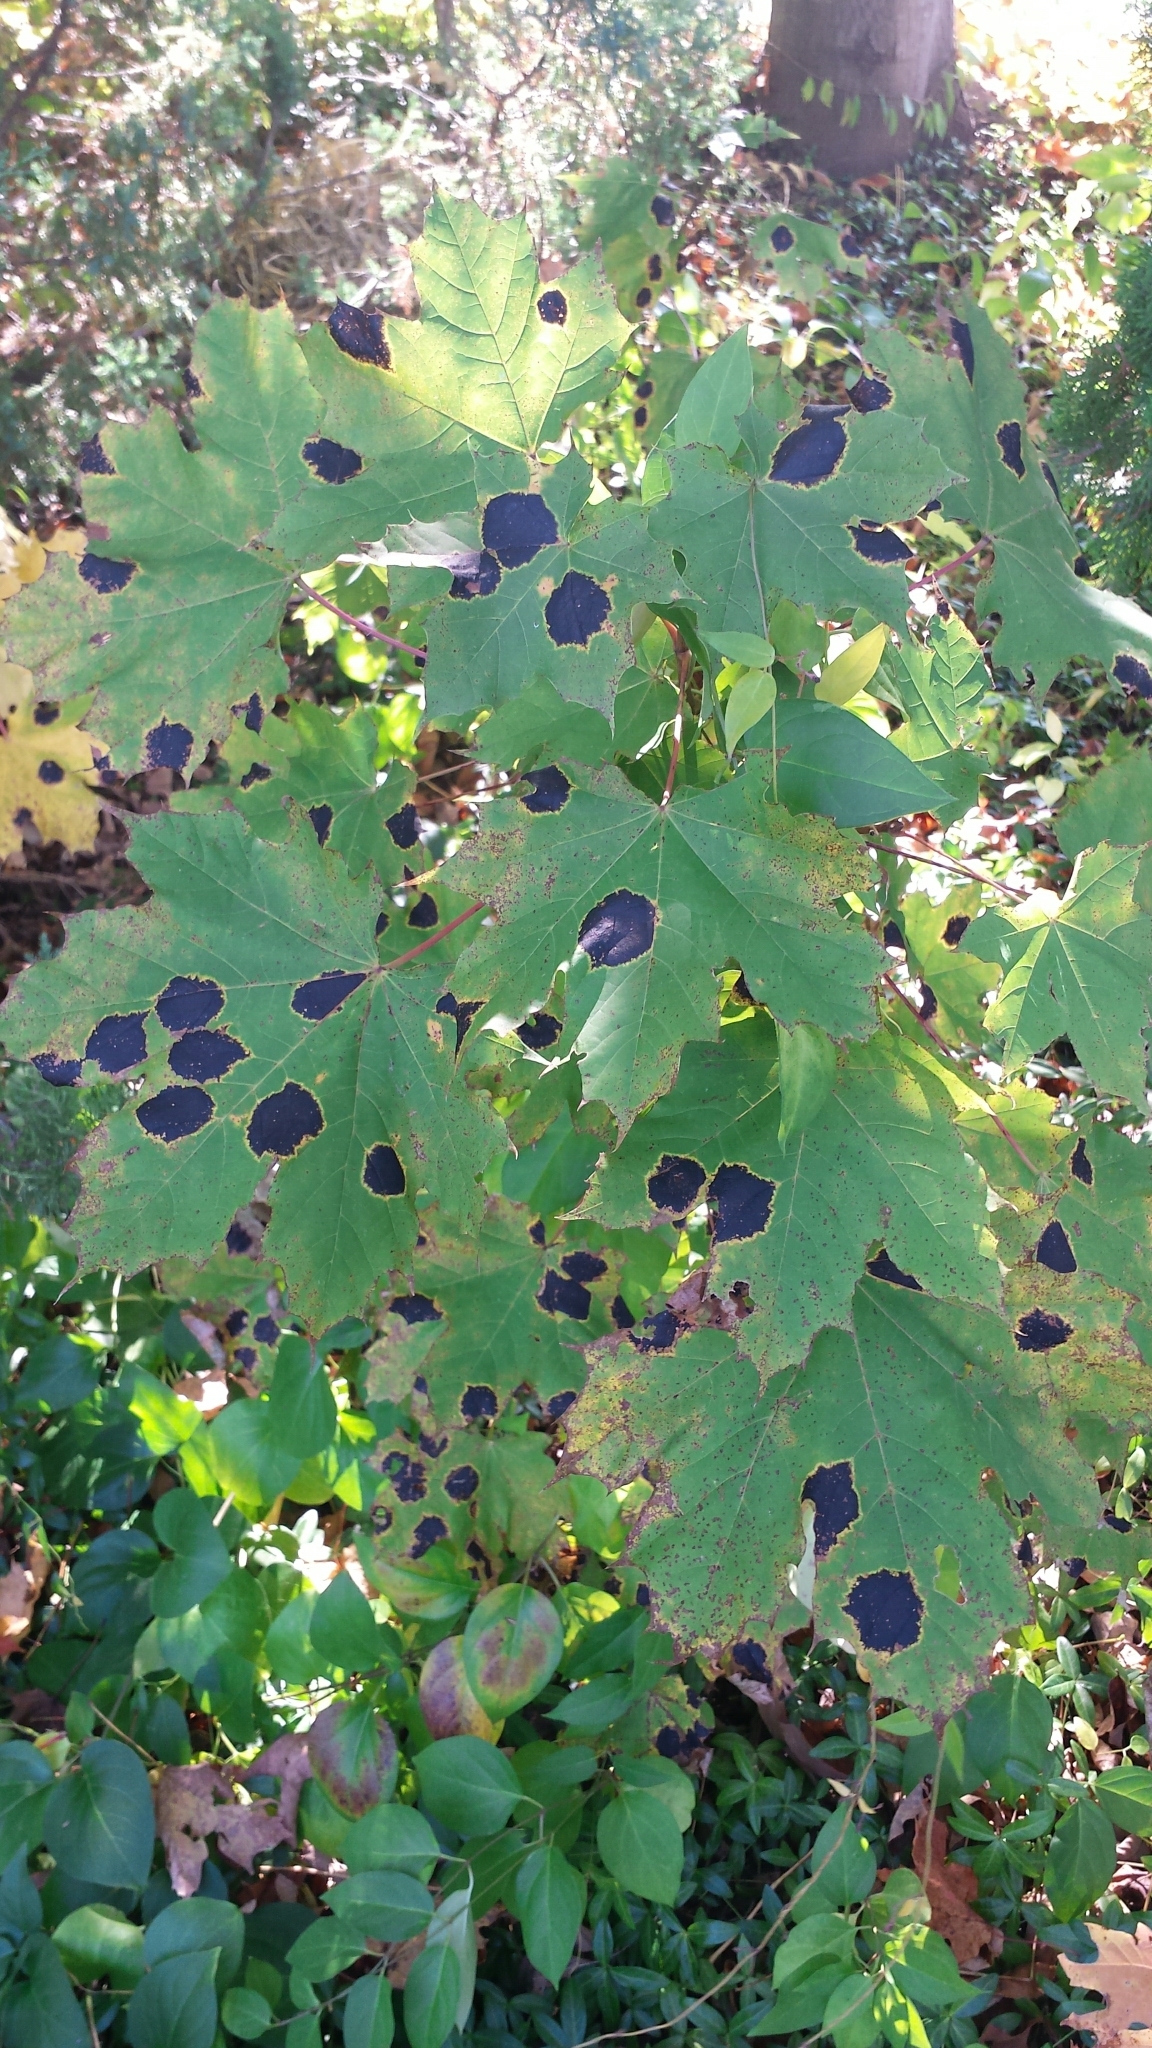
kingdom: Plantae
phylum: Tracheophyta
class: Magnoliopsida
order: Sapindales
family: Sapindaceae
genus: Acer
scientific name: Acer platanoides
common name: Norway maple
